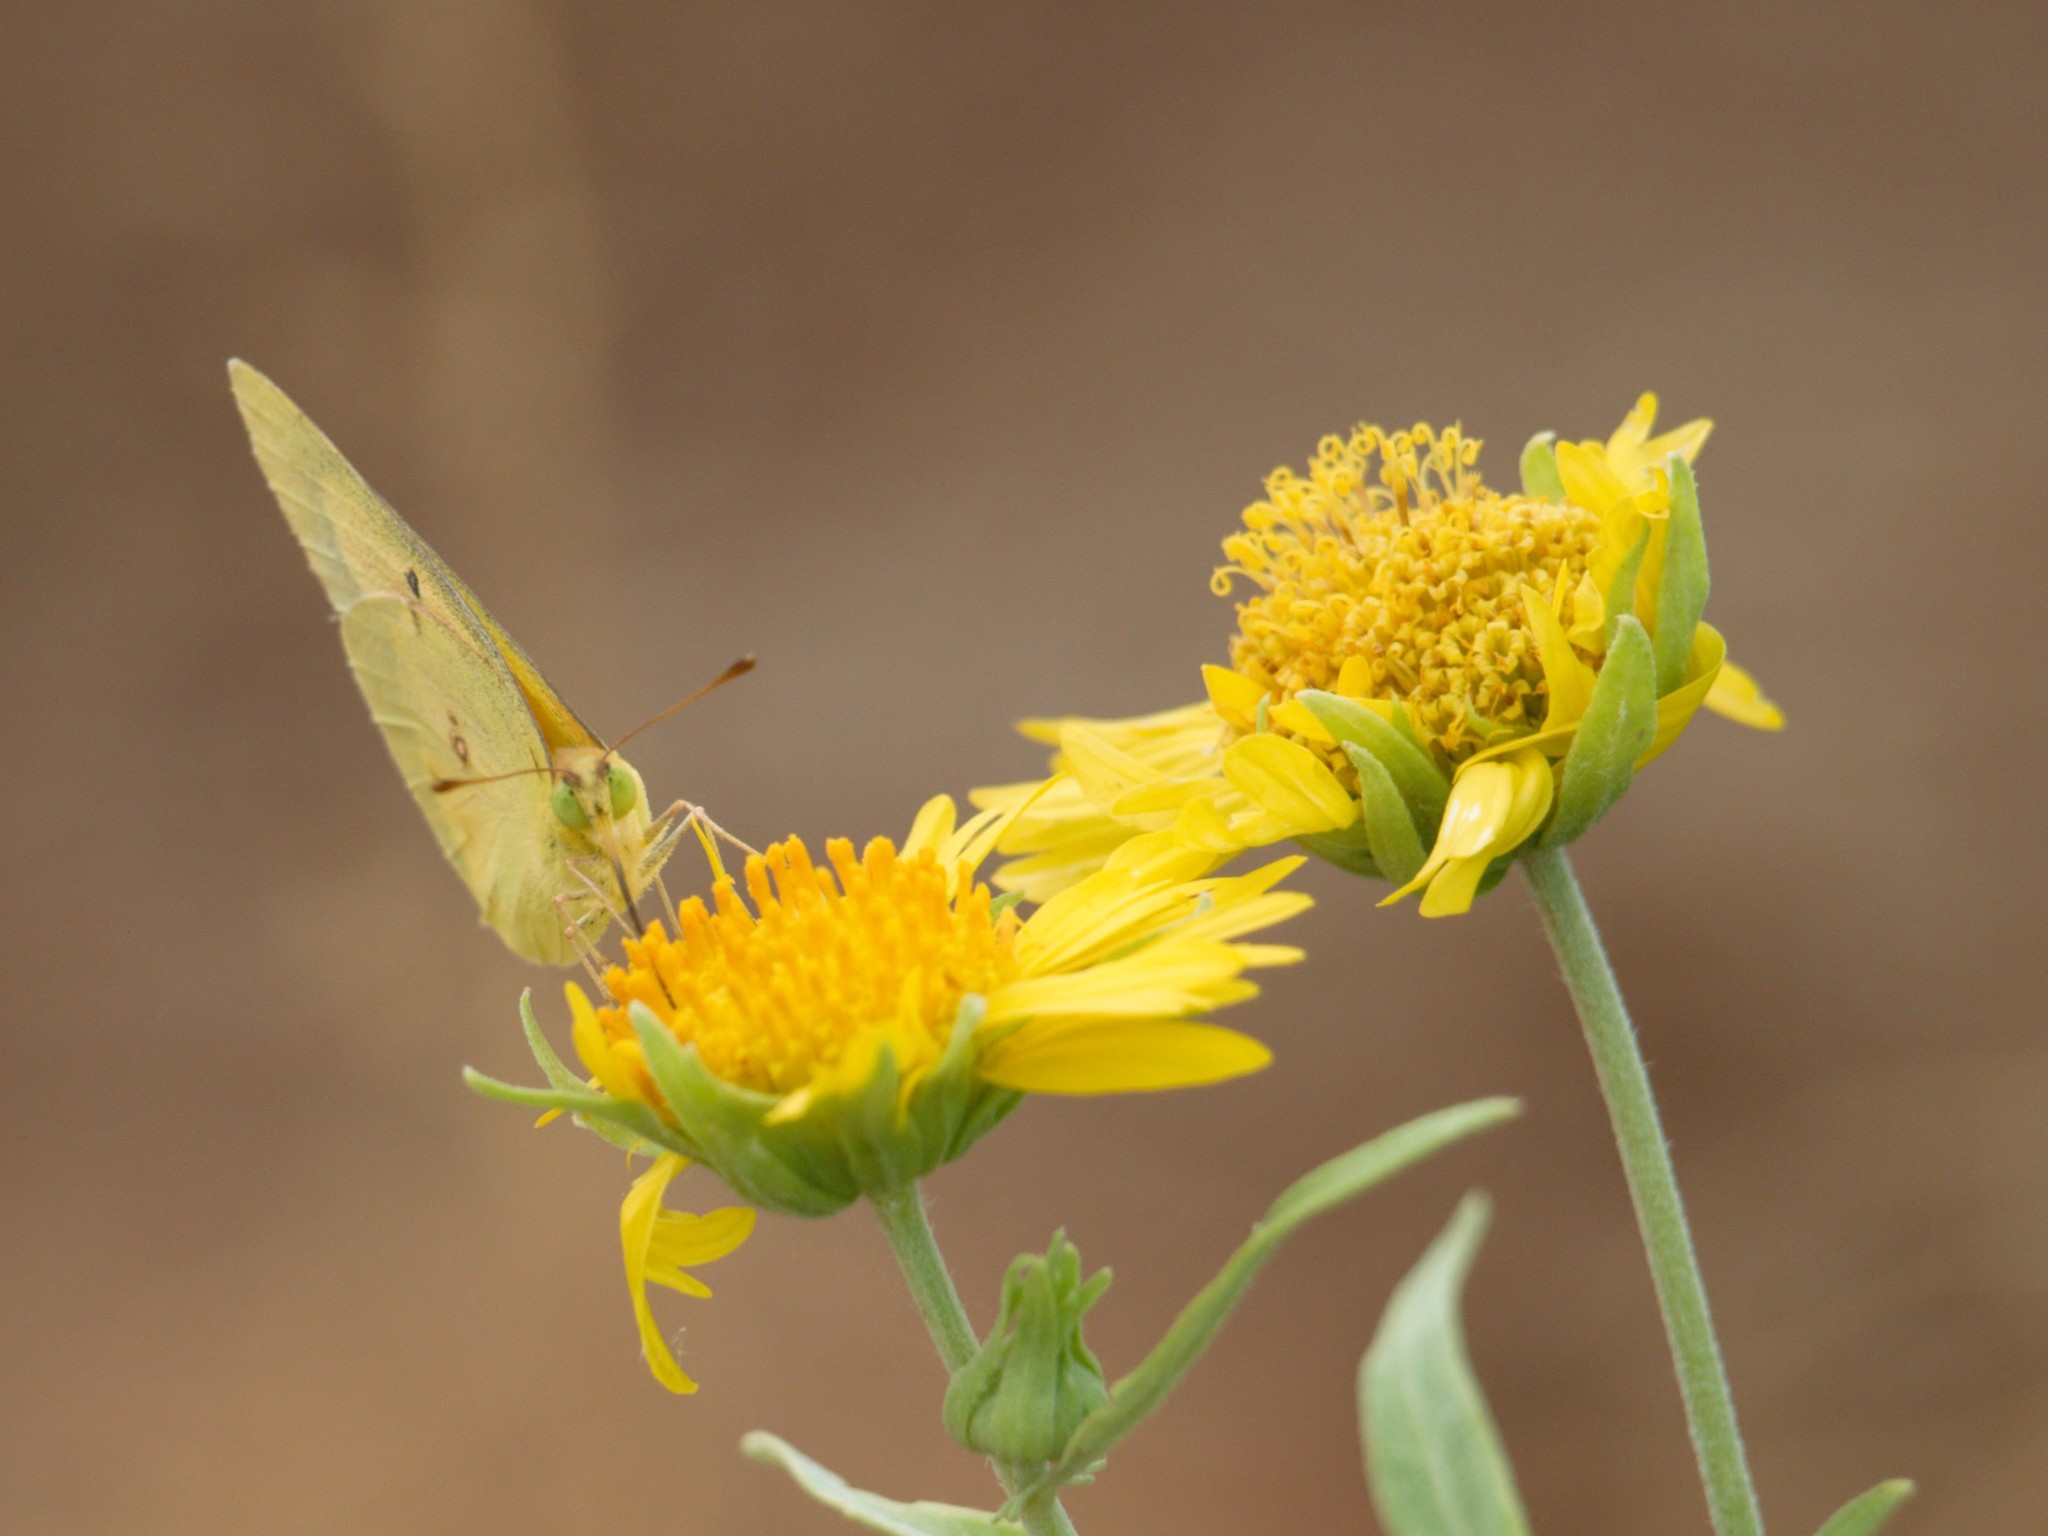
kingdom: Animalia
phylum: Arthropoda
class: Insecta
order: Lepidoptera
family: Pieridae
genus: Colias
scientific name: Colias eurytheme
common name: Alfalfa butterfly
